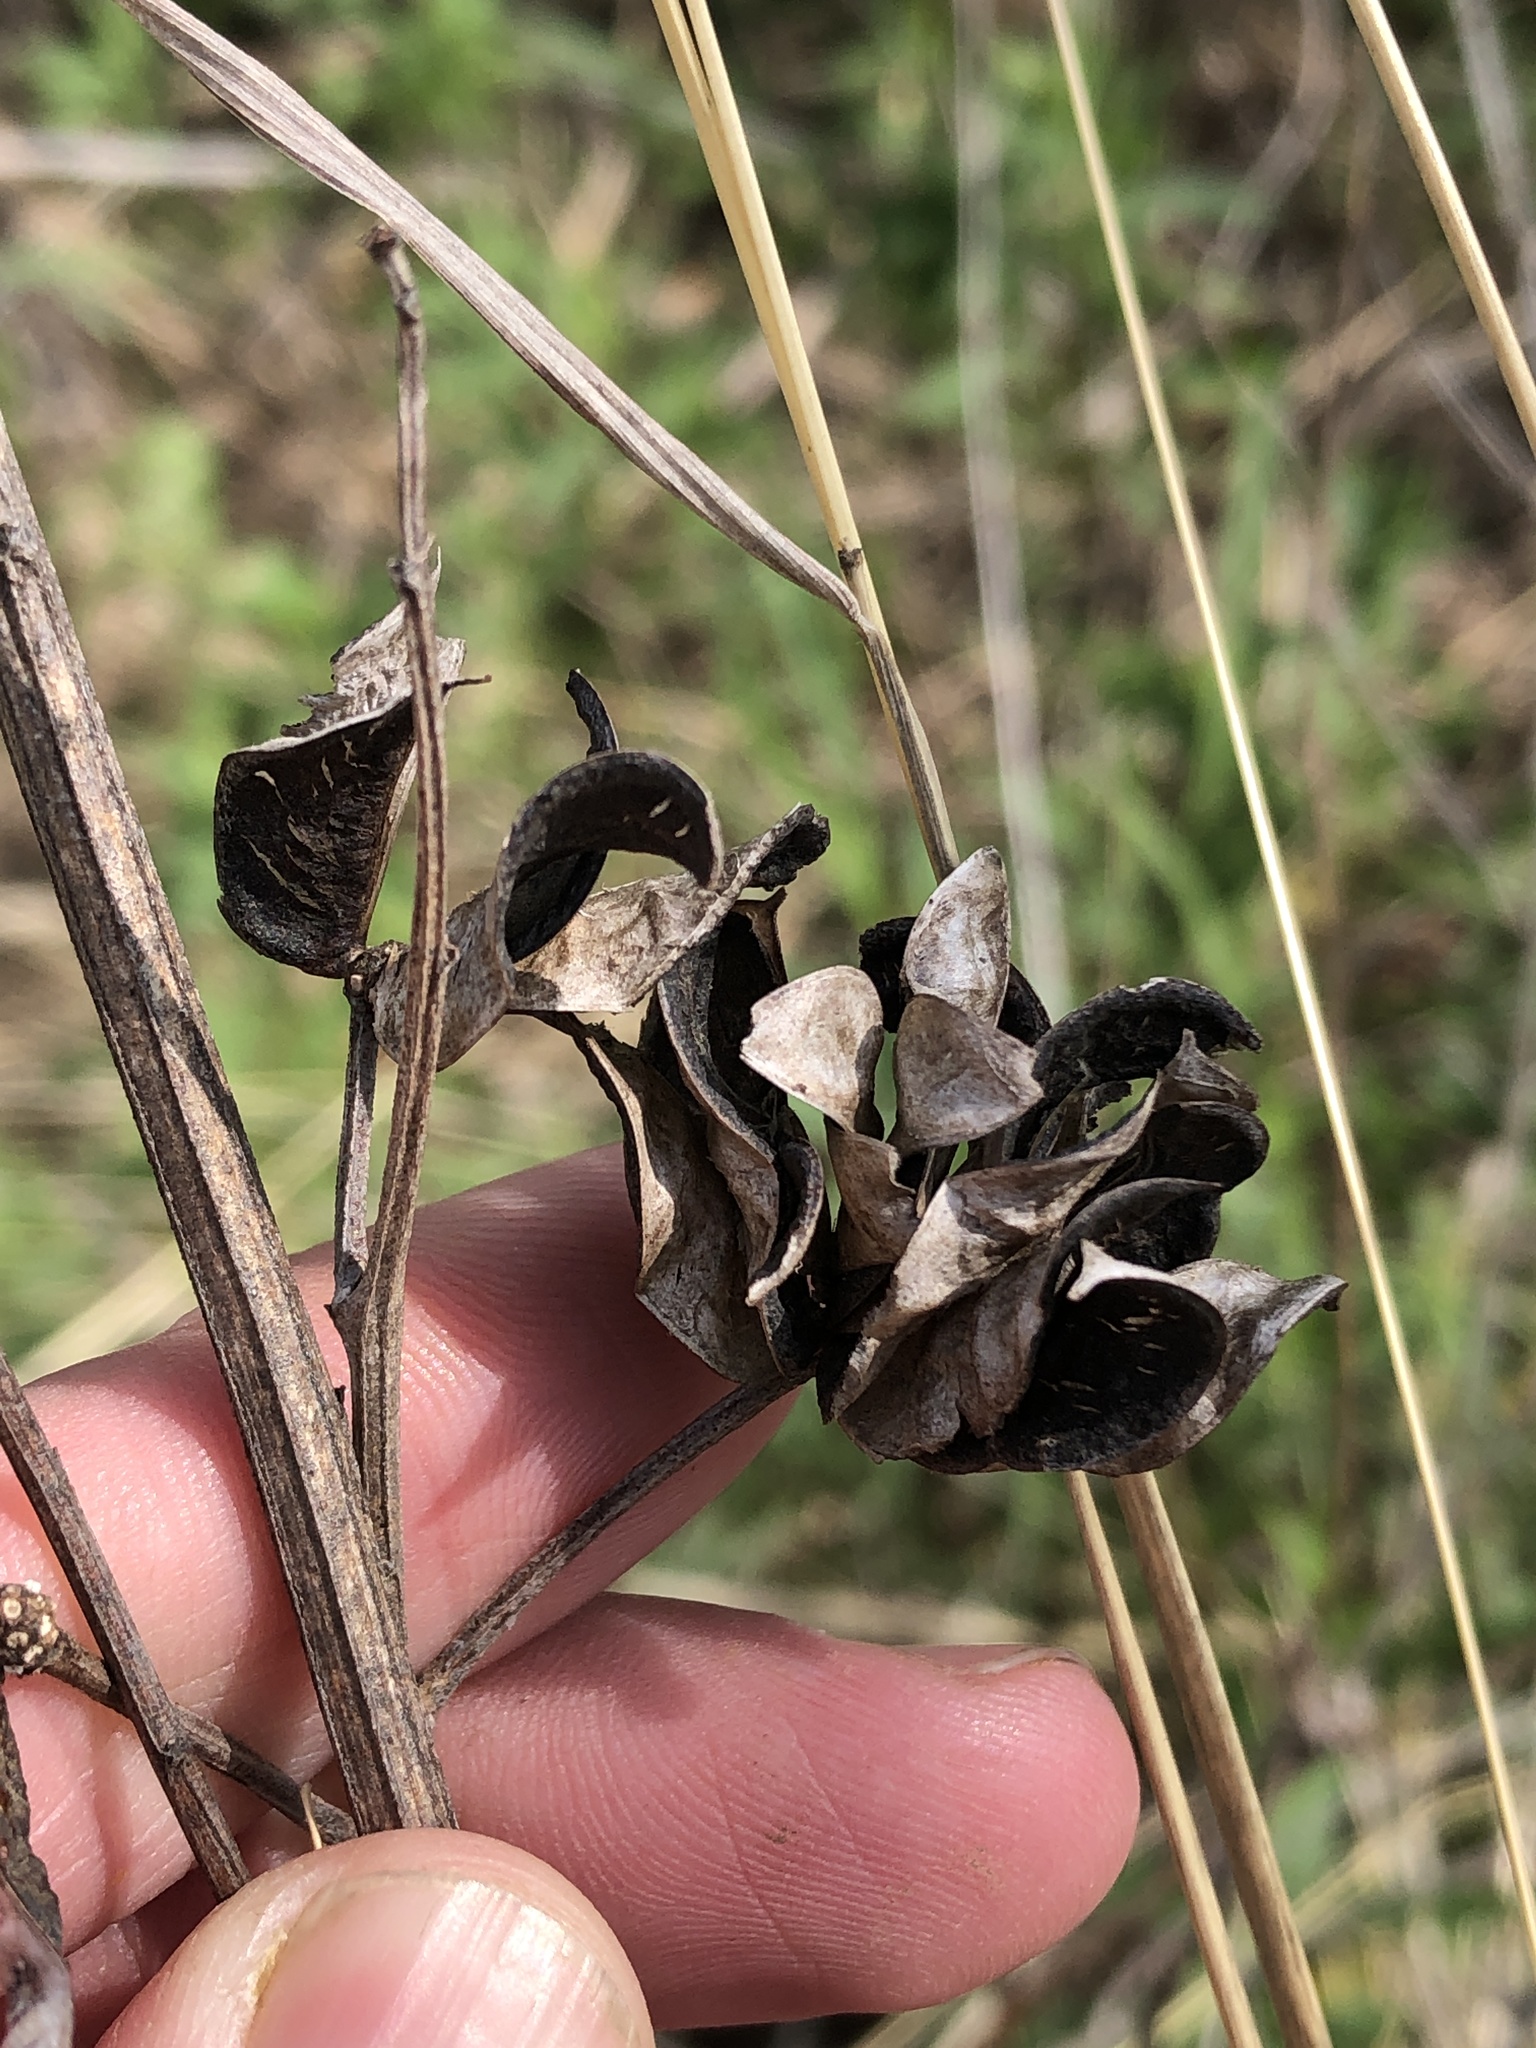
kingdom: Plantae
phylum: Tracheophyta
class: Magnoliopsida
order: Fabales
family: Fabaceae
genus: Desmanthus
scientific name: Desmanthus illinoensis
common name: Illinois bundle-flower
